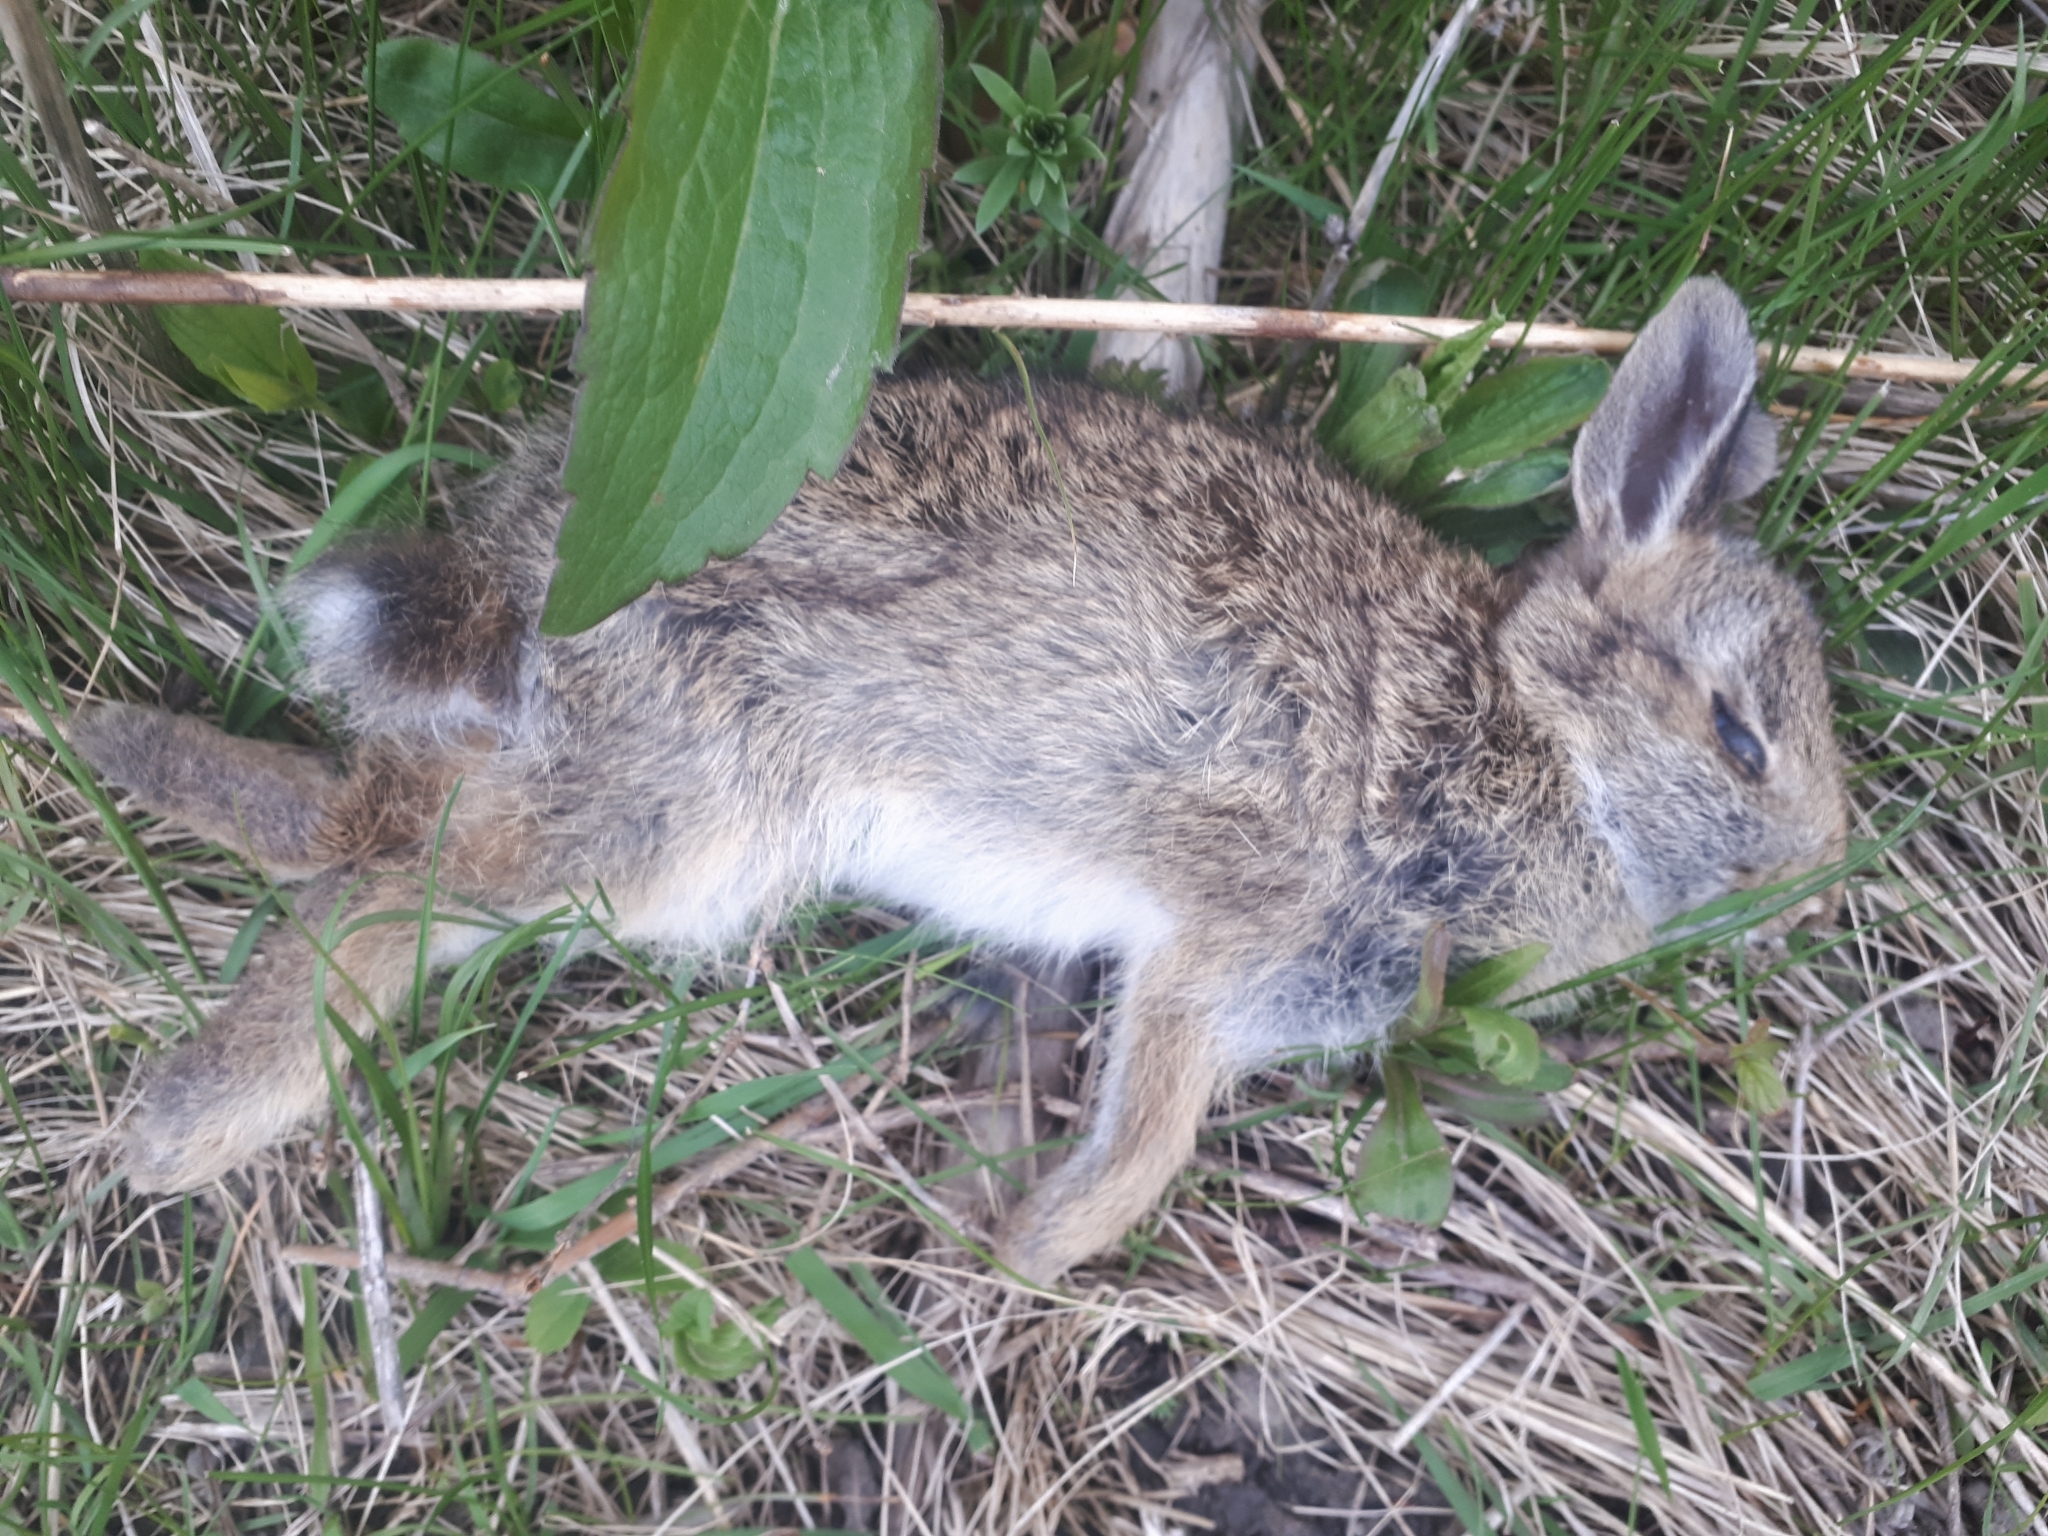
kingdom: Animalia
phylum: Chordata
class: Mammalia
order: Lagomorpha
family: Leporidae
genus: Sylvilagus
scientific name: Sylvilagus floridanus
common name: Eastern cottontail
